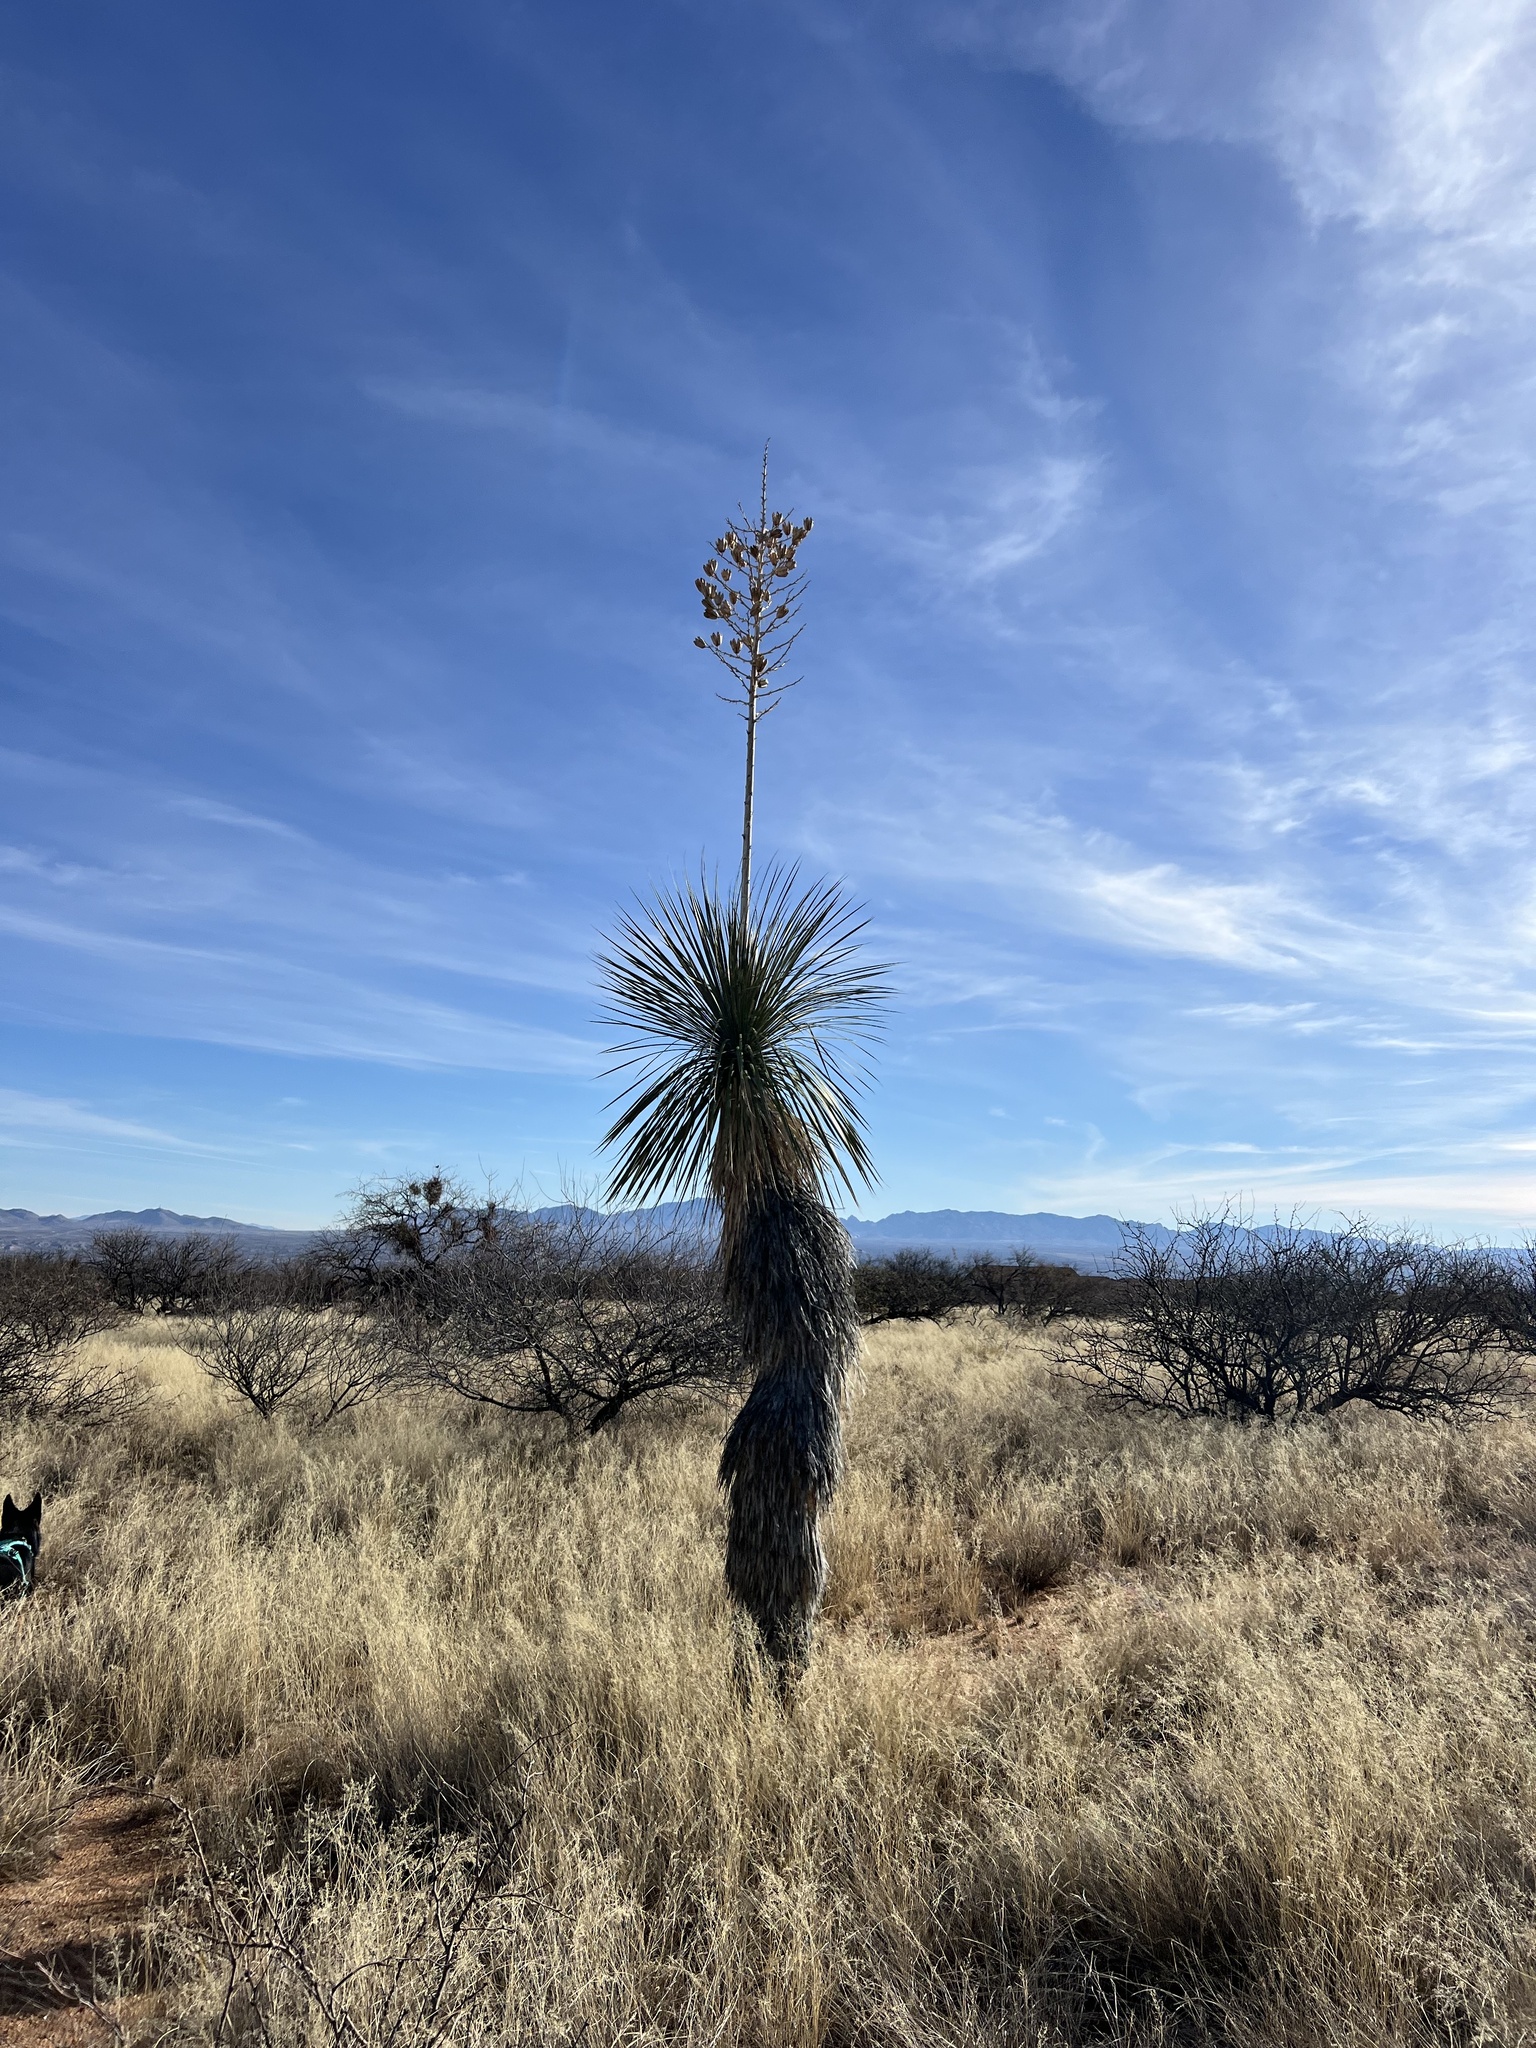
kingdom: Plantae
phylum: Tracheophyta
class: Liliopsida
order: Asparagales
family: Asparagaceae
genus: Yucca
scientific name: Yucca elata
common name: Palmella
